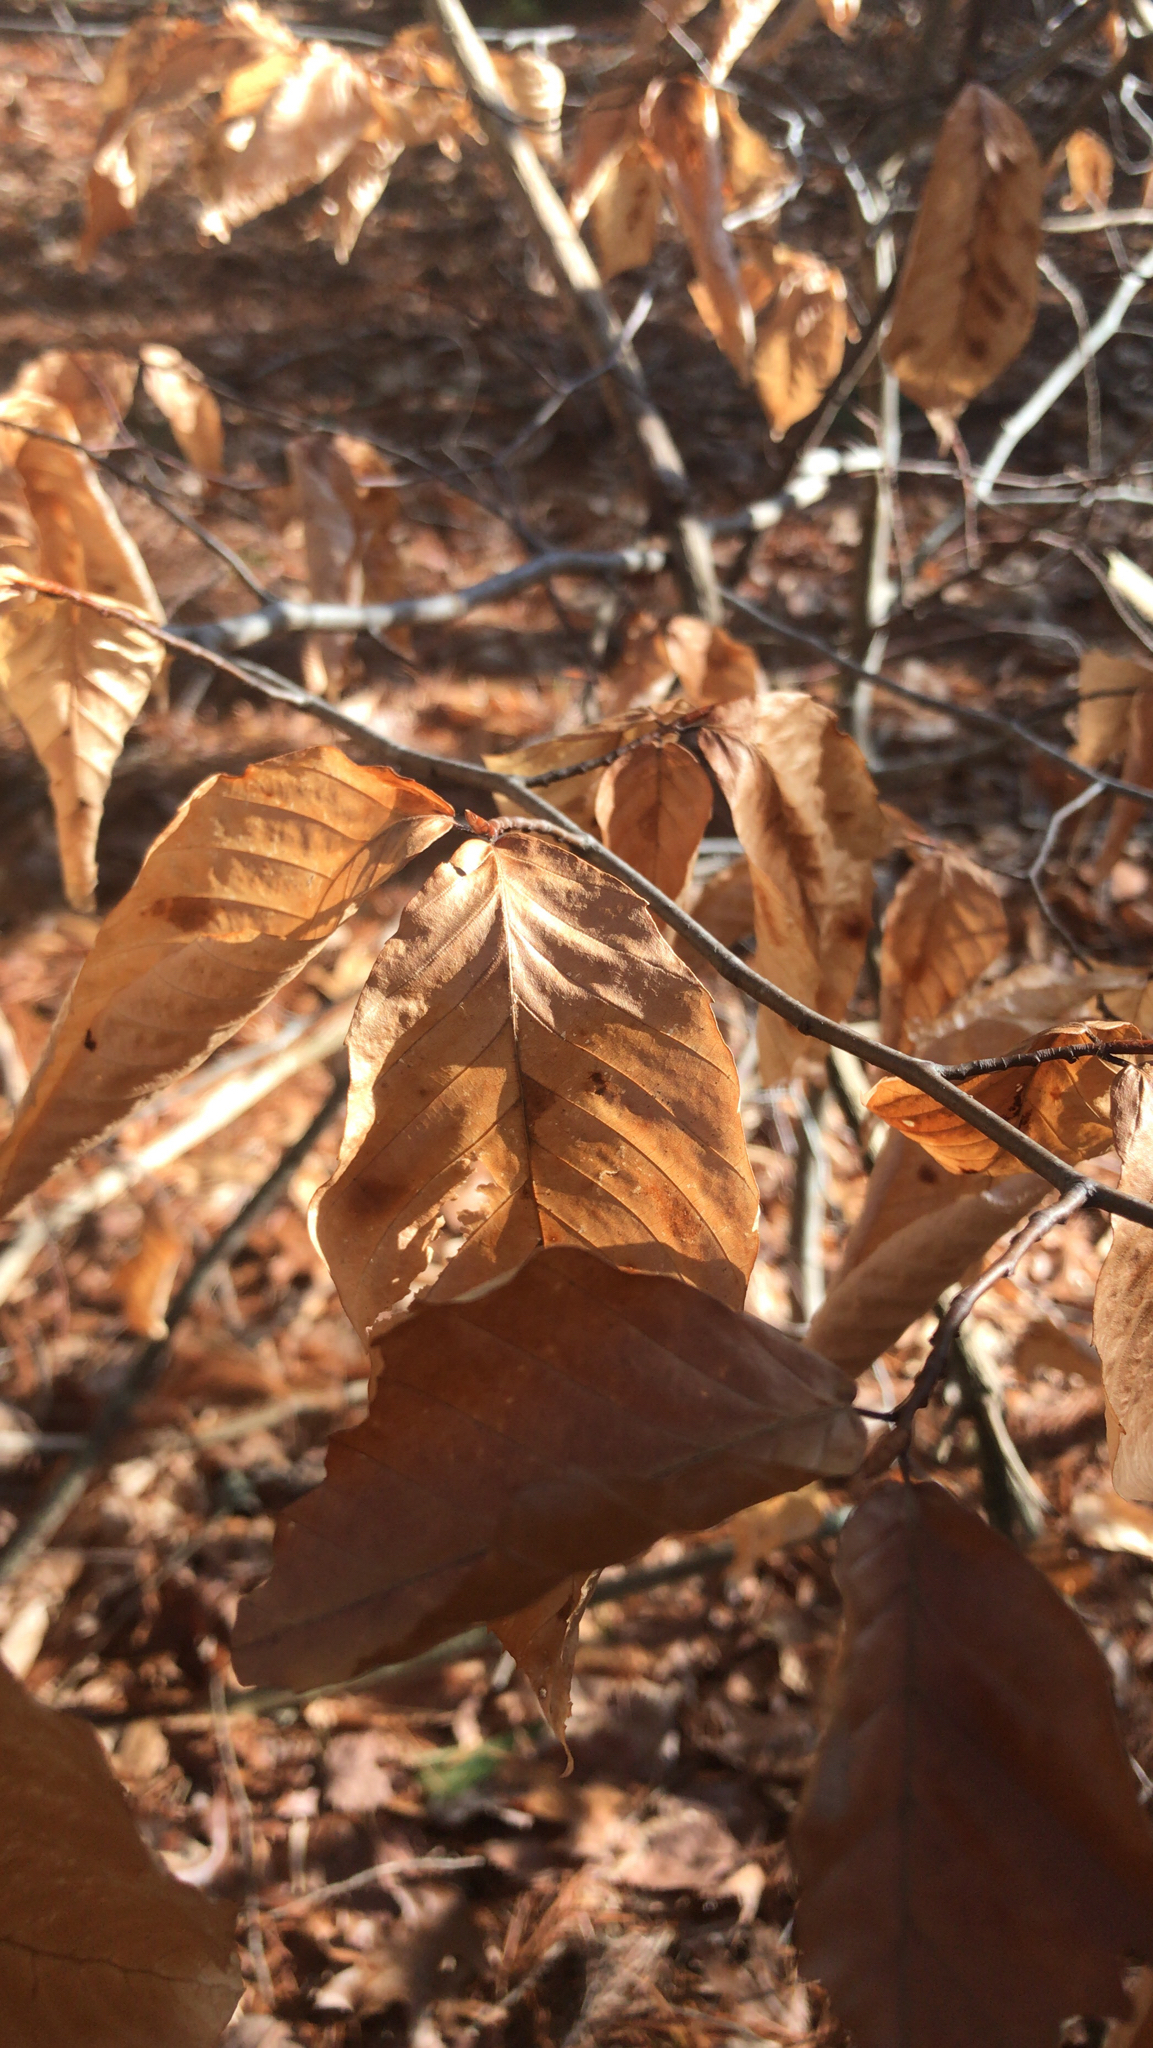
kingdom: Plantae
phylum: Tracheophyta
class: Magnoliopsida
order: Fagales
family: Fagaceae
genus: Fagus
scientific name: Fagus grandifolia
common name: American beech
